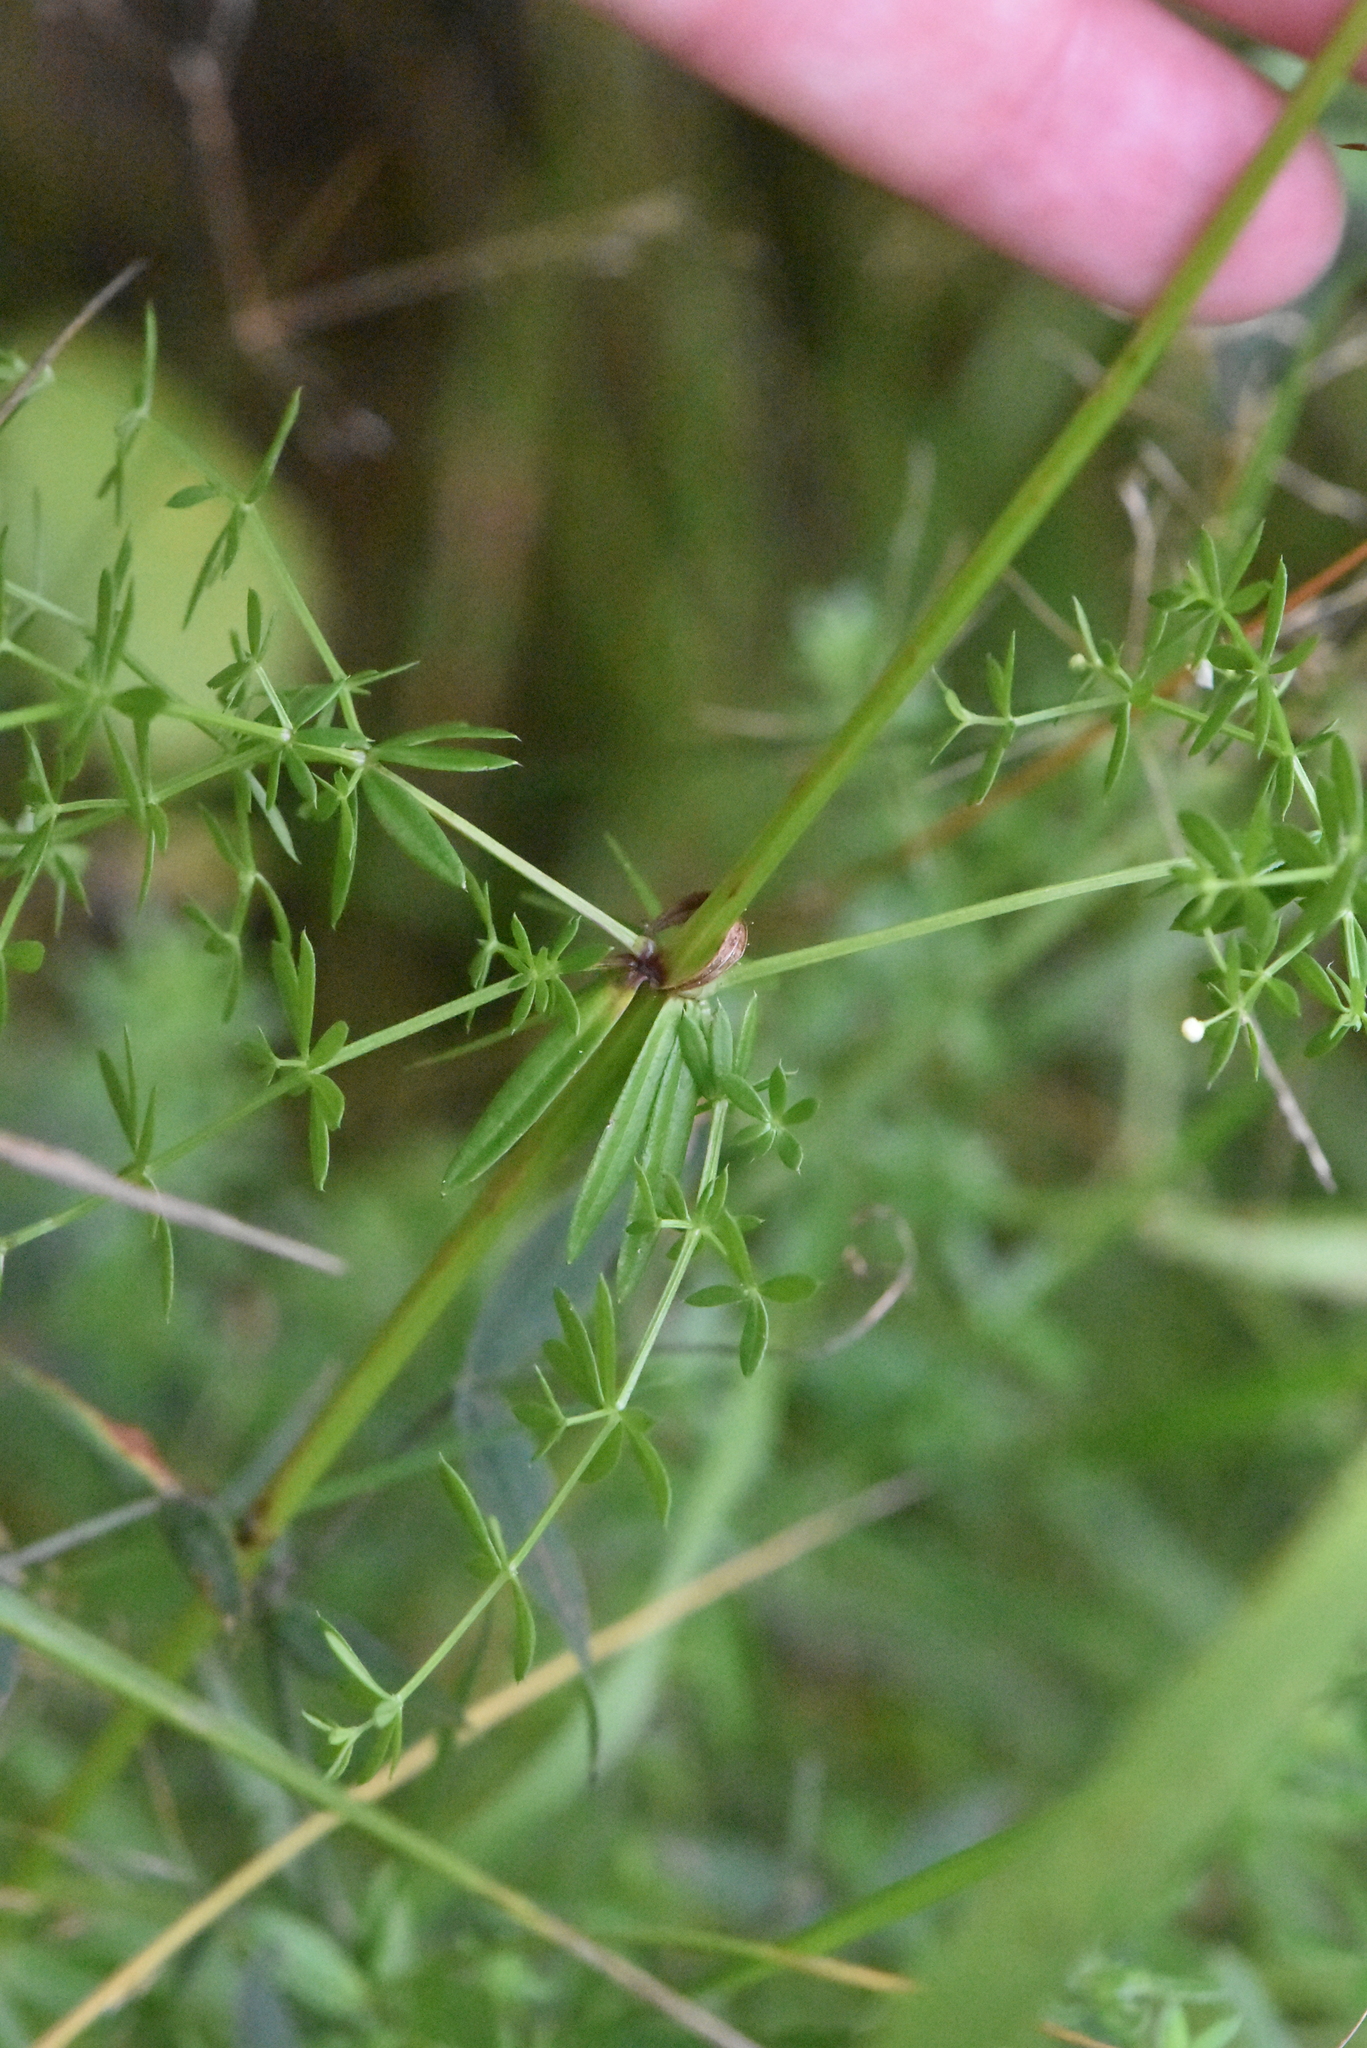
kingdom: Plantae
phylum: Tracheophyta
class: Magnoliopsida
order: Gentianales
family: Rubiaceae
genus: Galium
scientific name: Galium mollugo
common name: Hedge bedstraw
